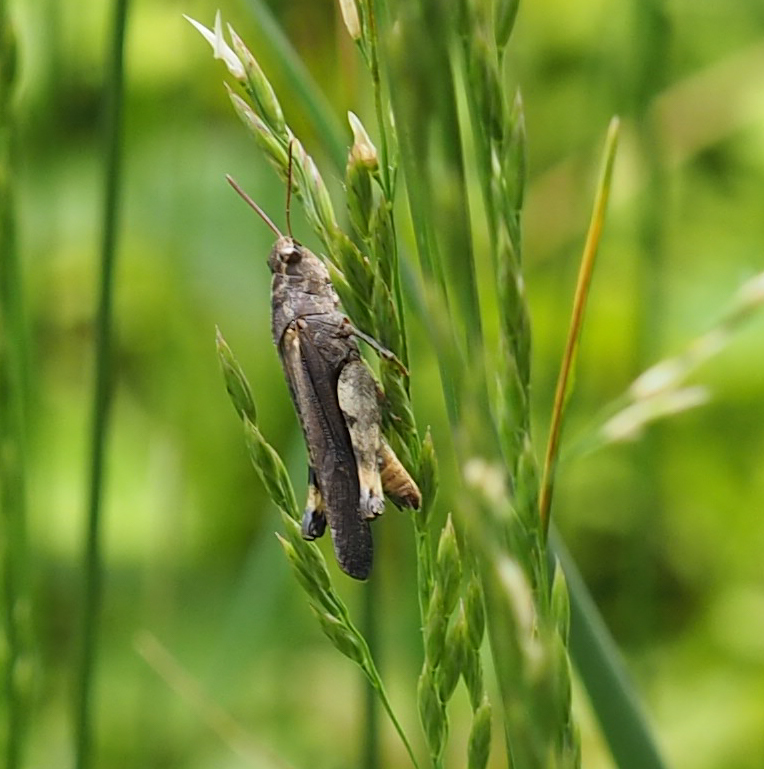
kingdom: Animalia
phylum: Arthropoda
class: Insecta
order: Orthoptera
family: Acrididae
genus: Chortophaga
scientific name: Chortophaga viridifasciata
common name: Green-striped grasshopper
